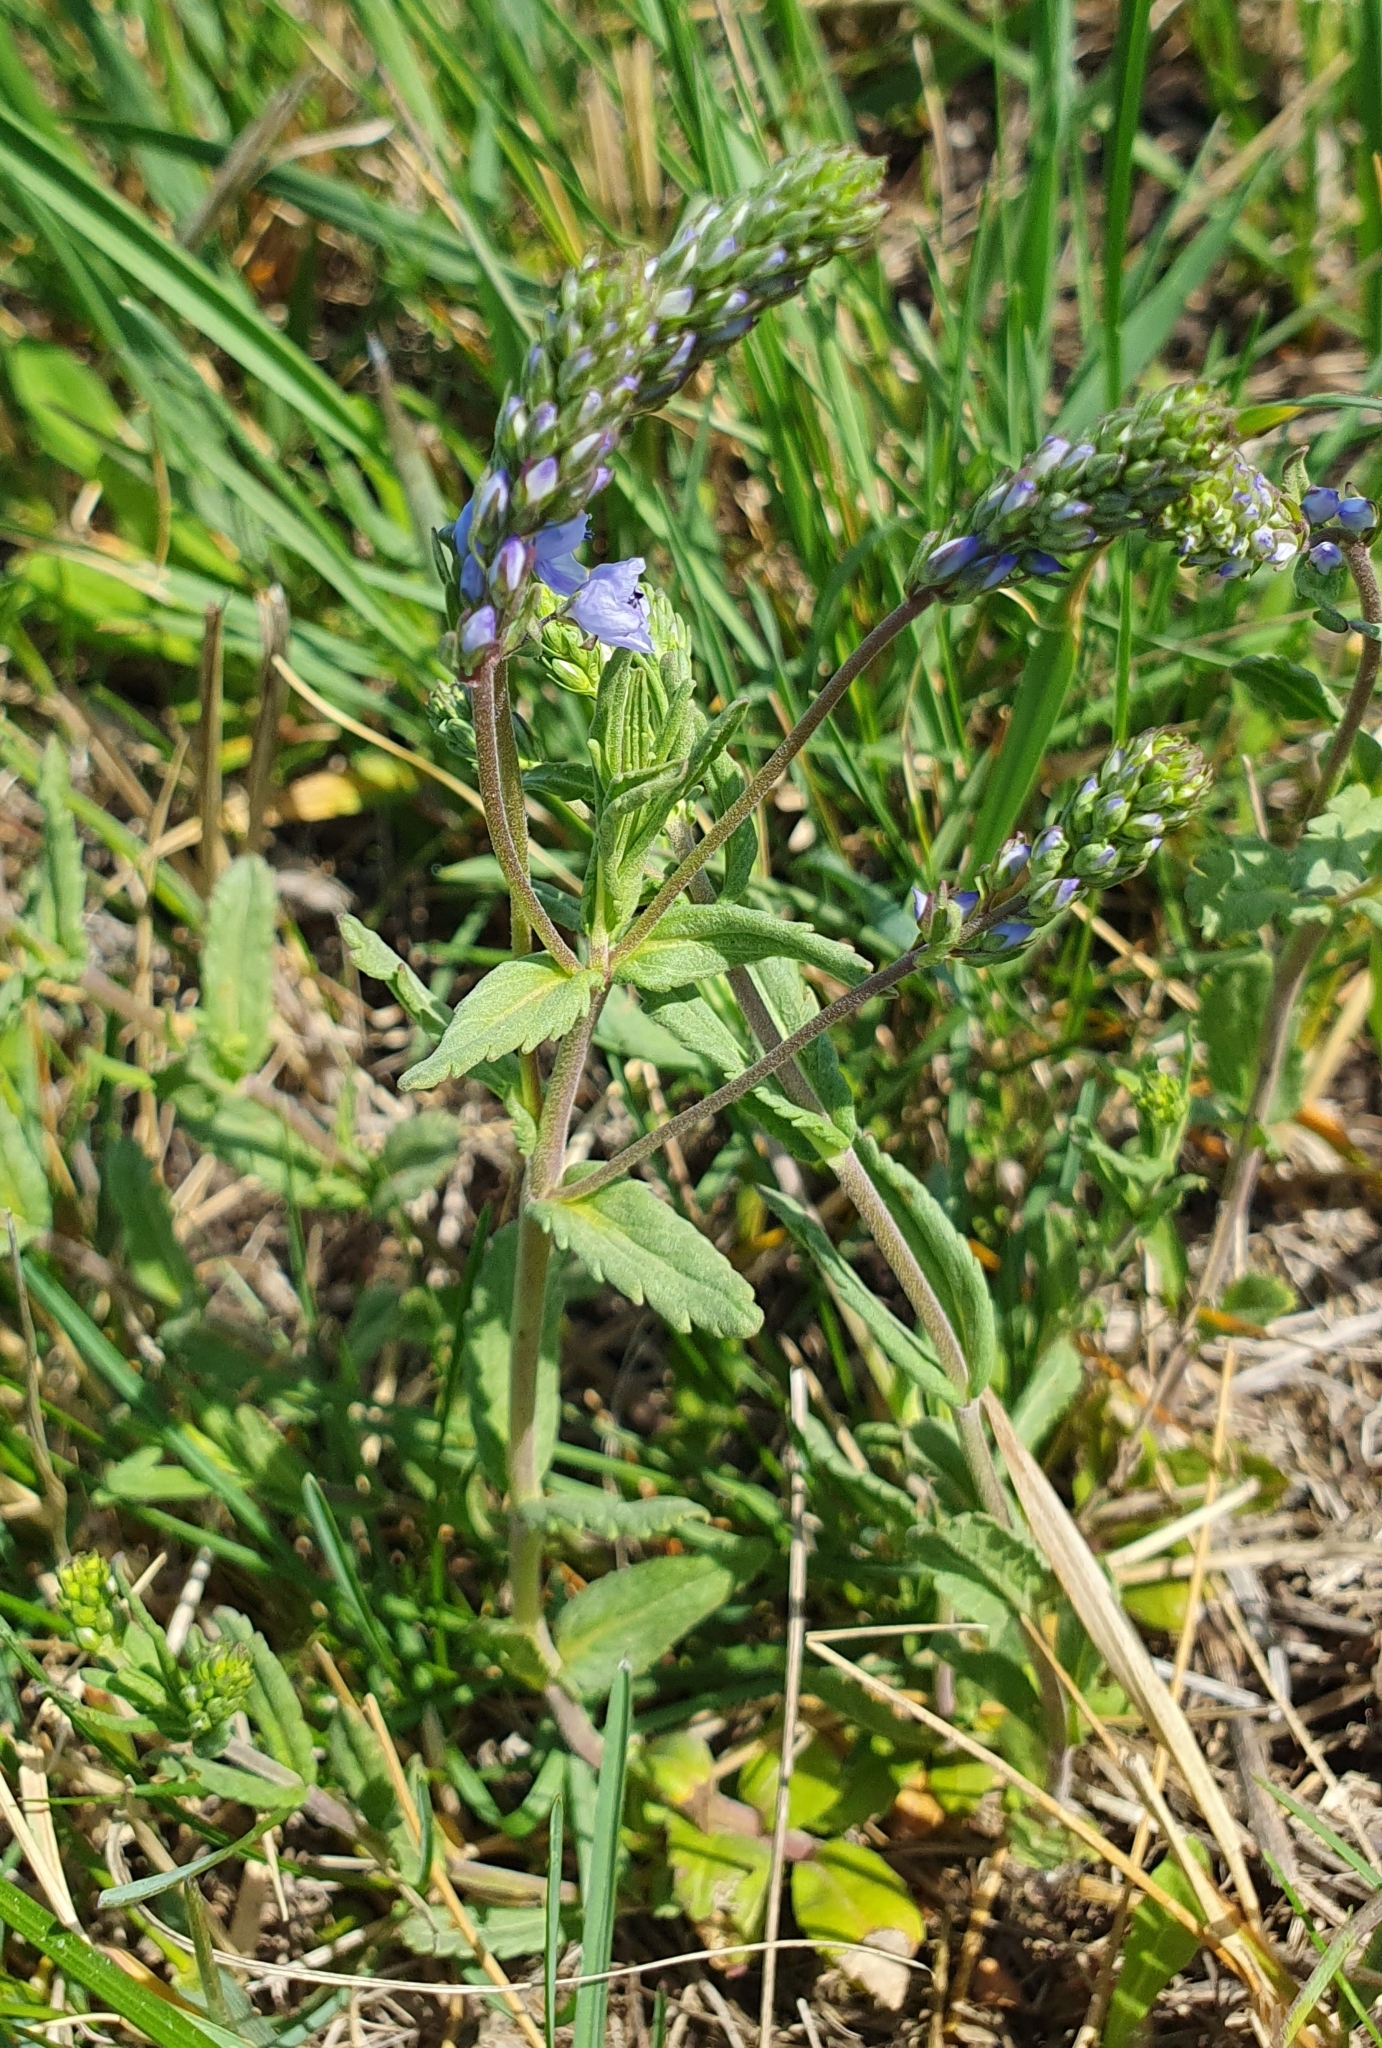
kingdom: Plantae
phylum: Tracheophyta
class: Magnoliopsida
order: Lamiales
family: Plantaginaceae
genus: Veronica
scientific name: Veronica prostrata
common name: Prostrate speedwell
